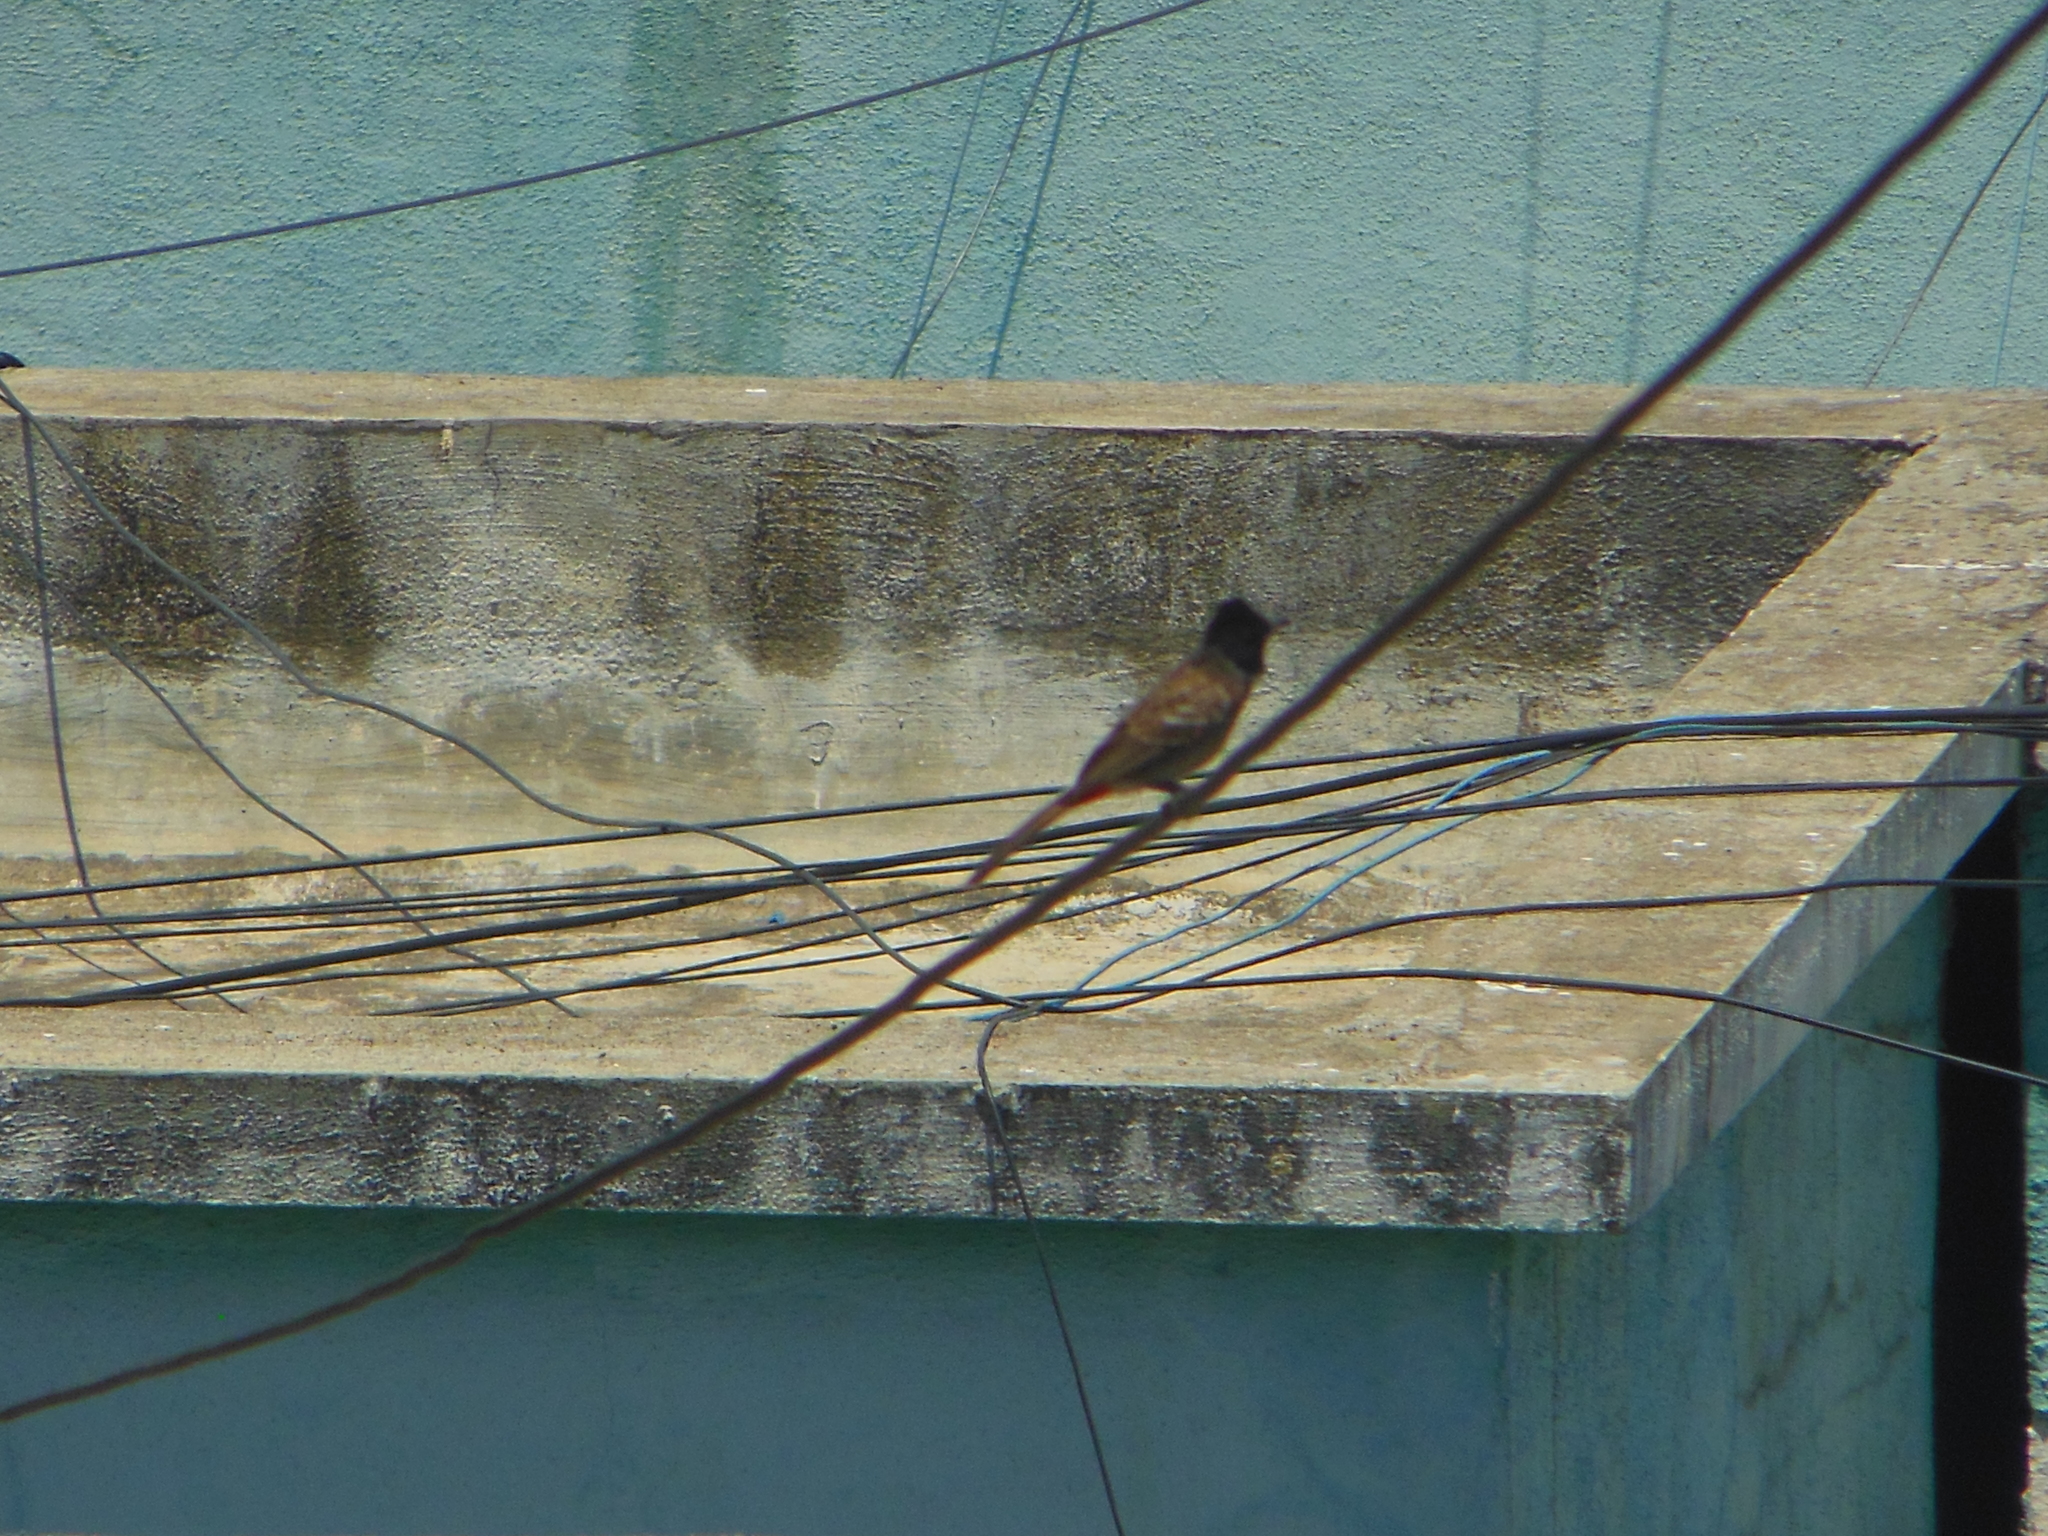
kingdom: Animalia
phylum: Chordata
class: Aves
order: Passeriformes
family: Pycnonotidae
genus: Pycnonotus
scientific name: Pycnonotus cafer
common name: Red-vented bulbul
